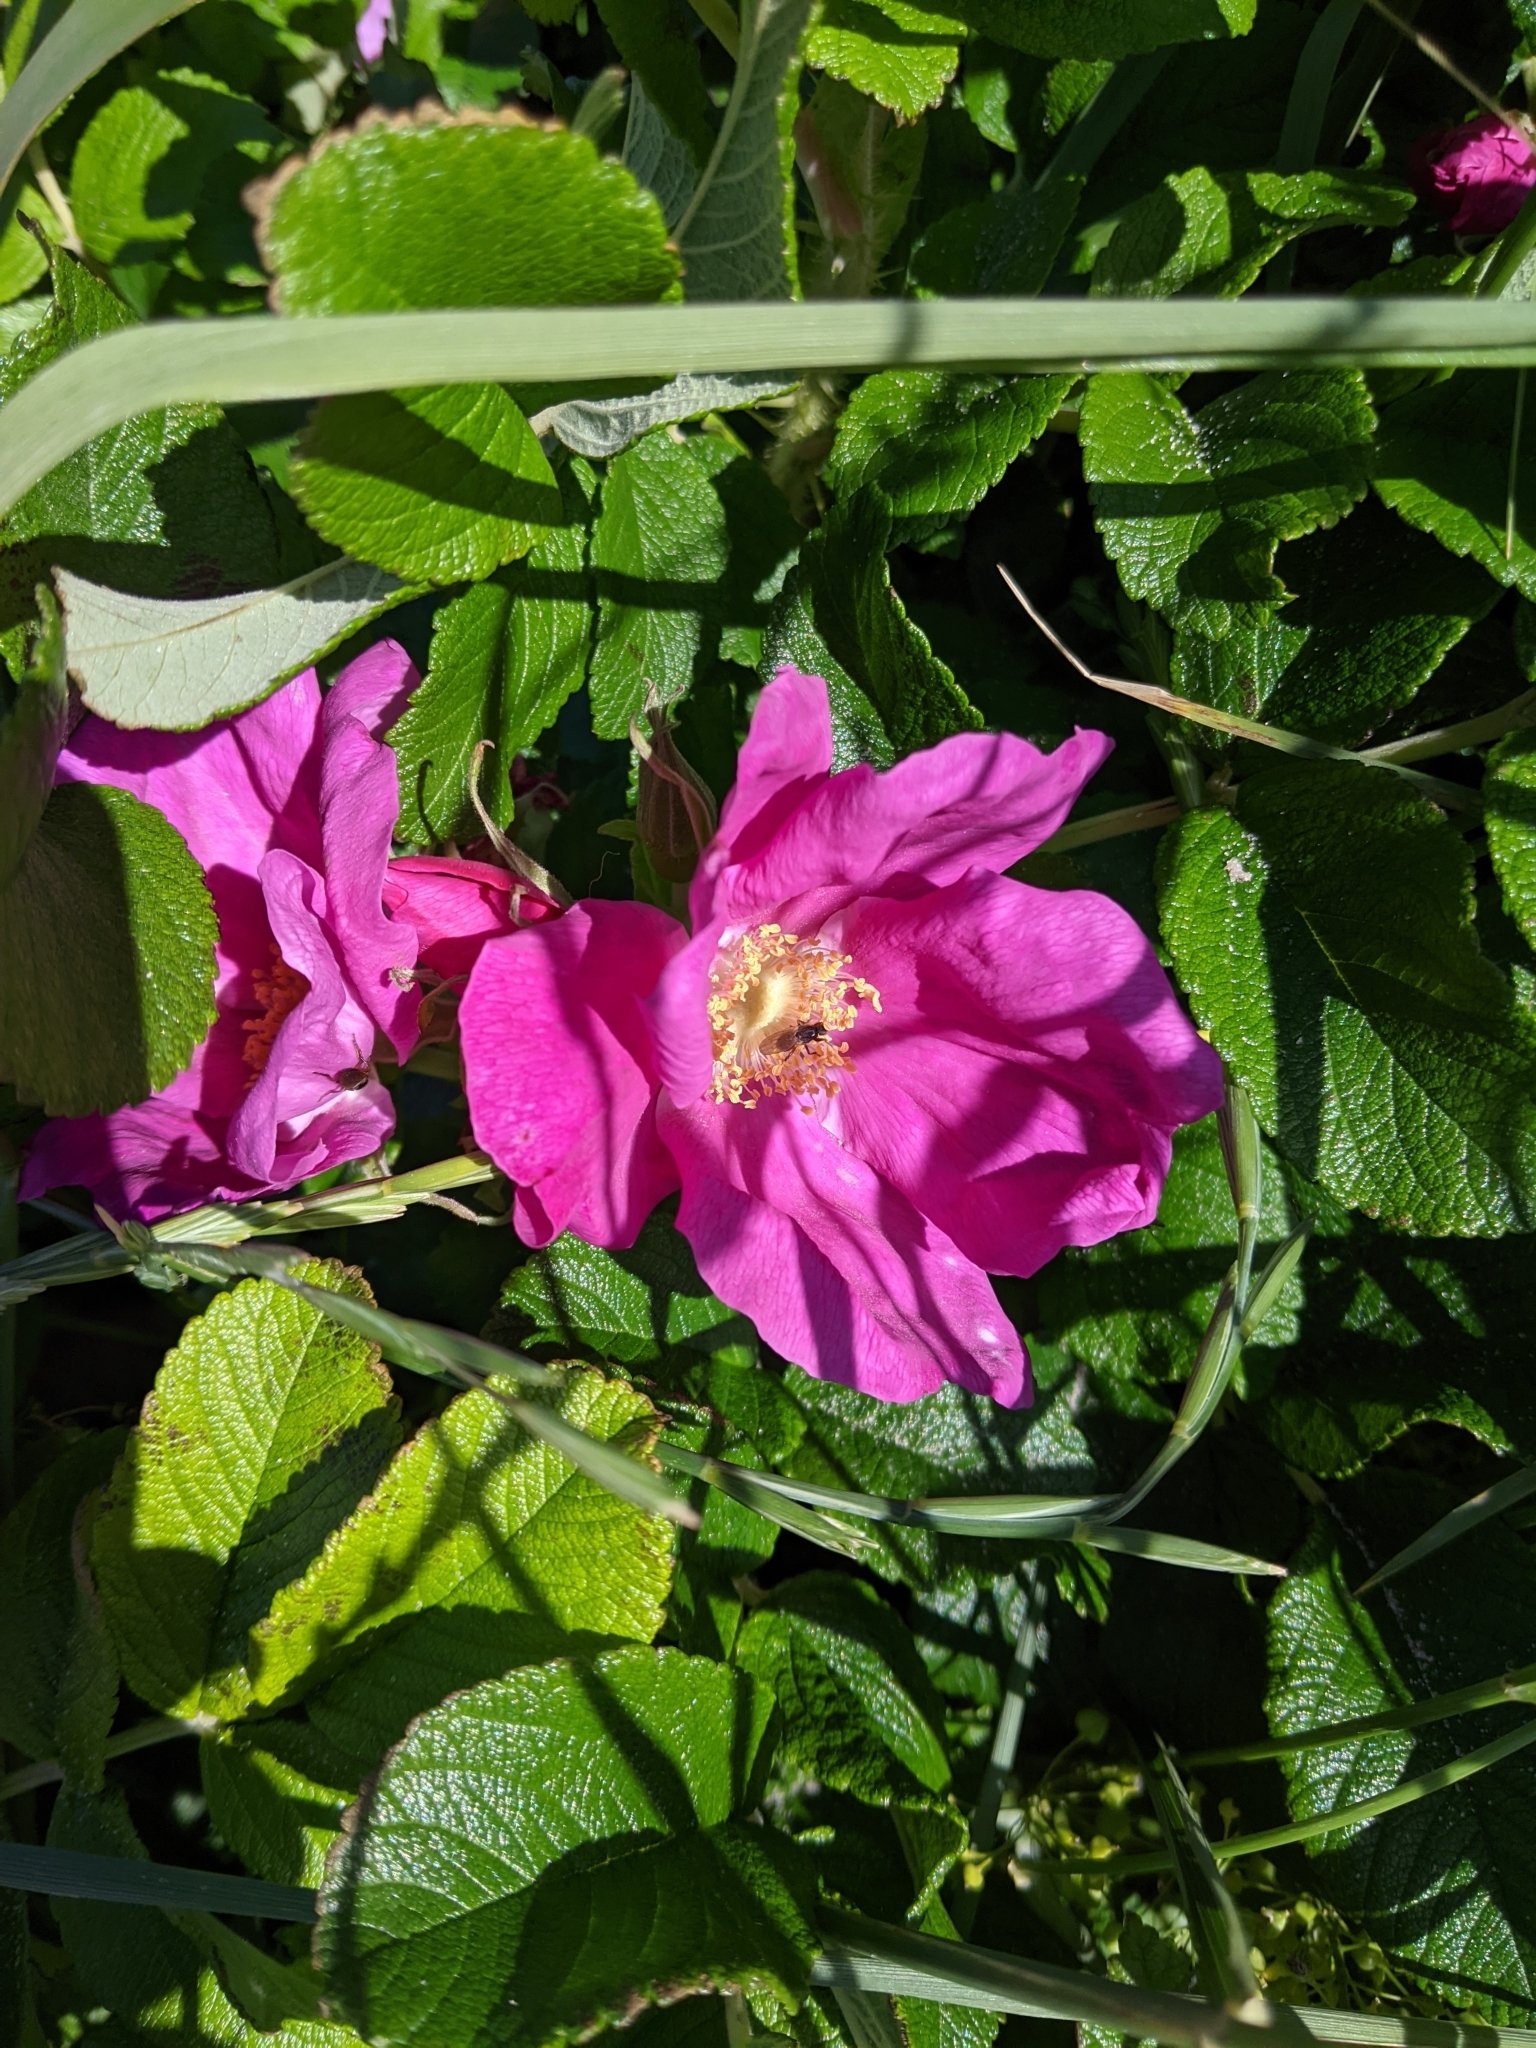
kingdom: Plantae
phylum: Tracheophyta
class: Magnoliopsida
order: Rosales
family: Rosaceae
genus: Rosa
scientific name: Rosa rugosa
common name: Japanese rose
